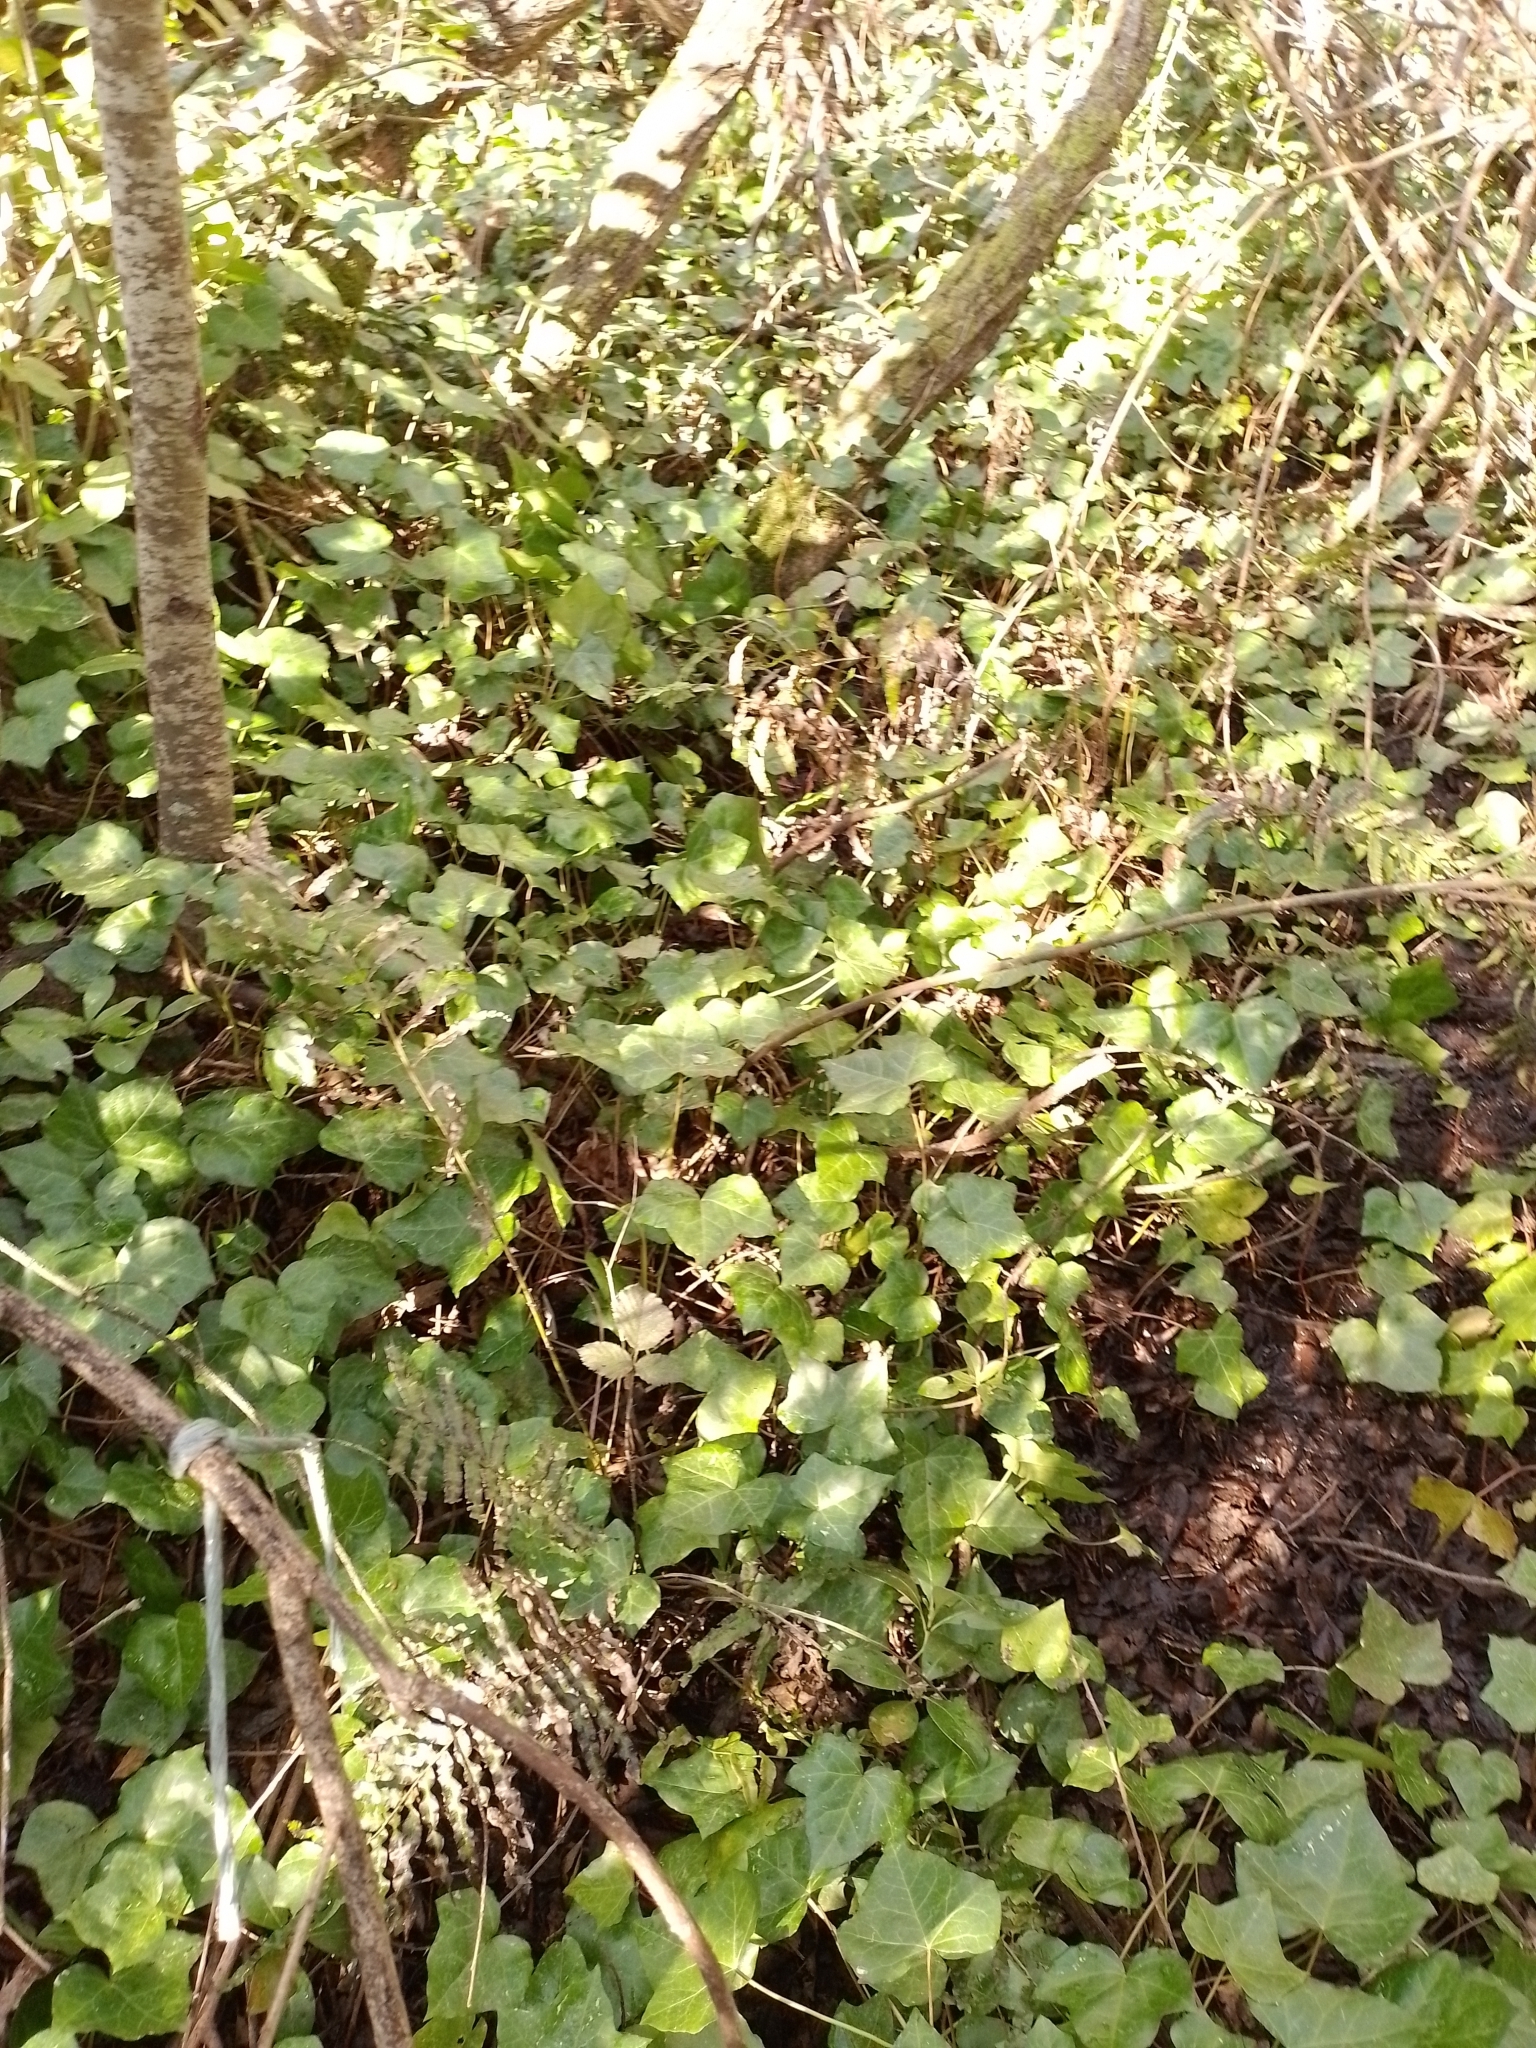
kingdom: Plantae
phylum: Tracheophyta
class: Magnoliopsida
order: Apiales
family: Araliaceae
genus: Hedera
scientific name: Hedera helix
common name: Ivy
